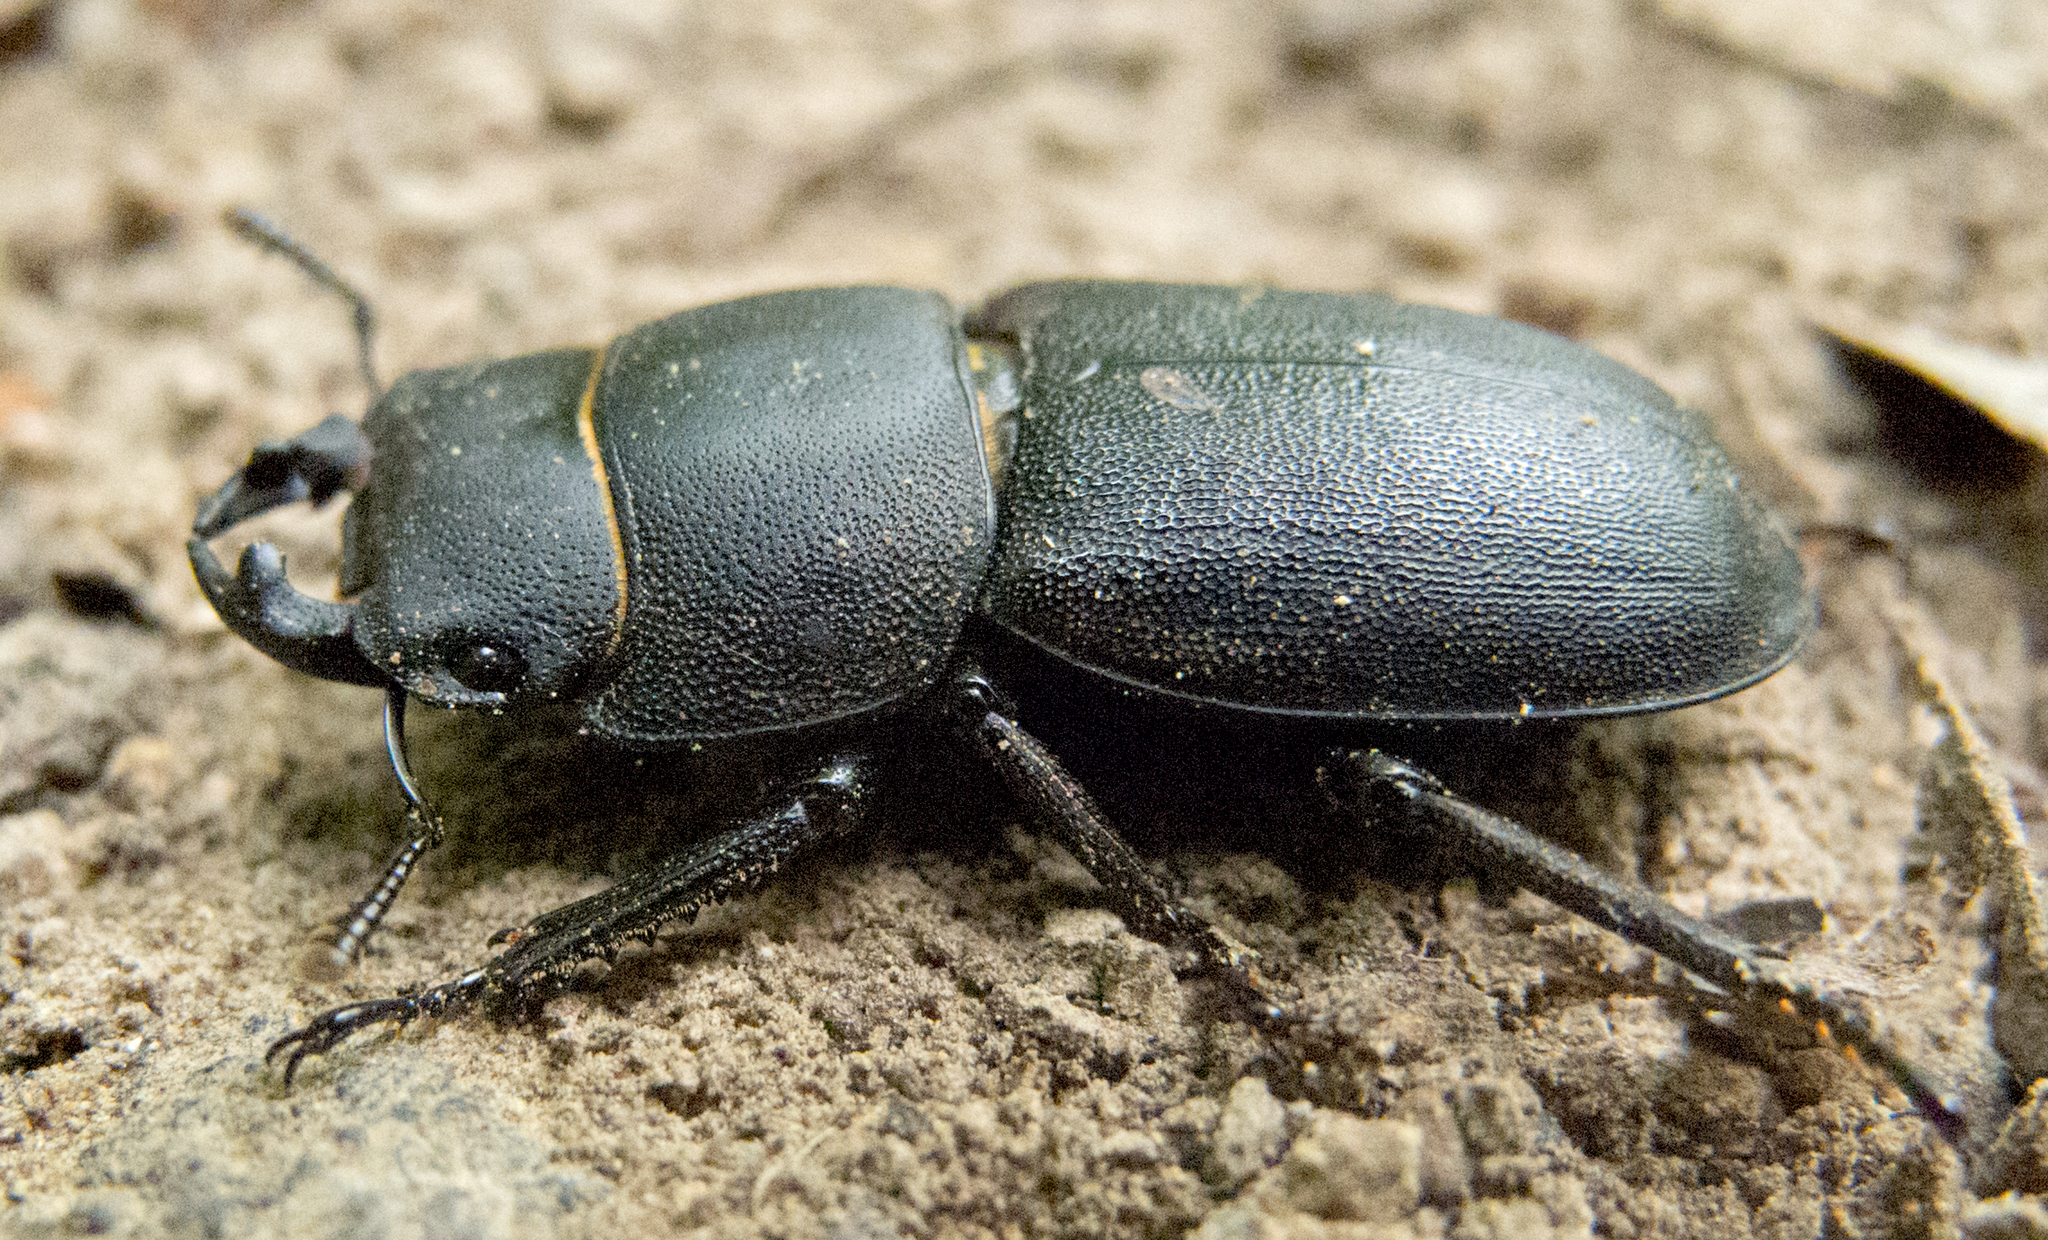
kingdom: Animalia
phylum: Arthropoda
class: Insecta
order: Coleoptera
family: Lucanidae
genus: Dorcus
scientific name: Dorcus parallelipipedus
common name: Lesser stag beetle
